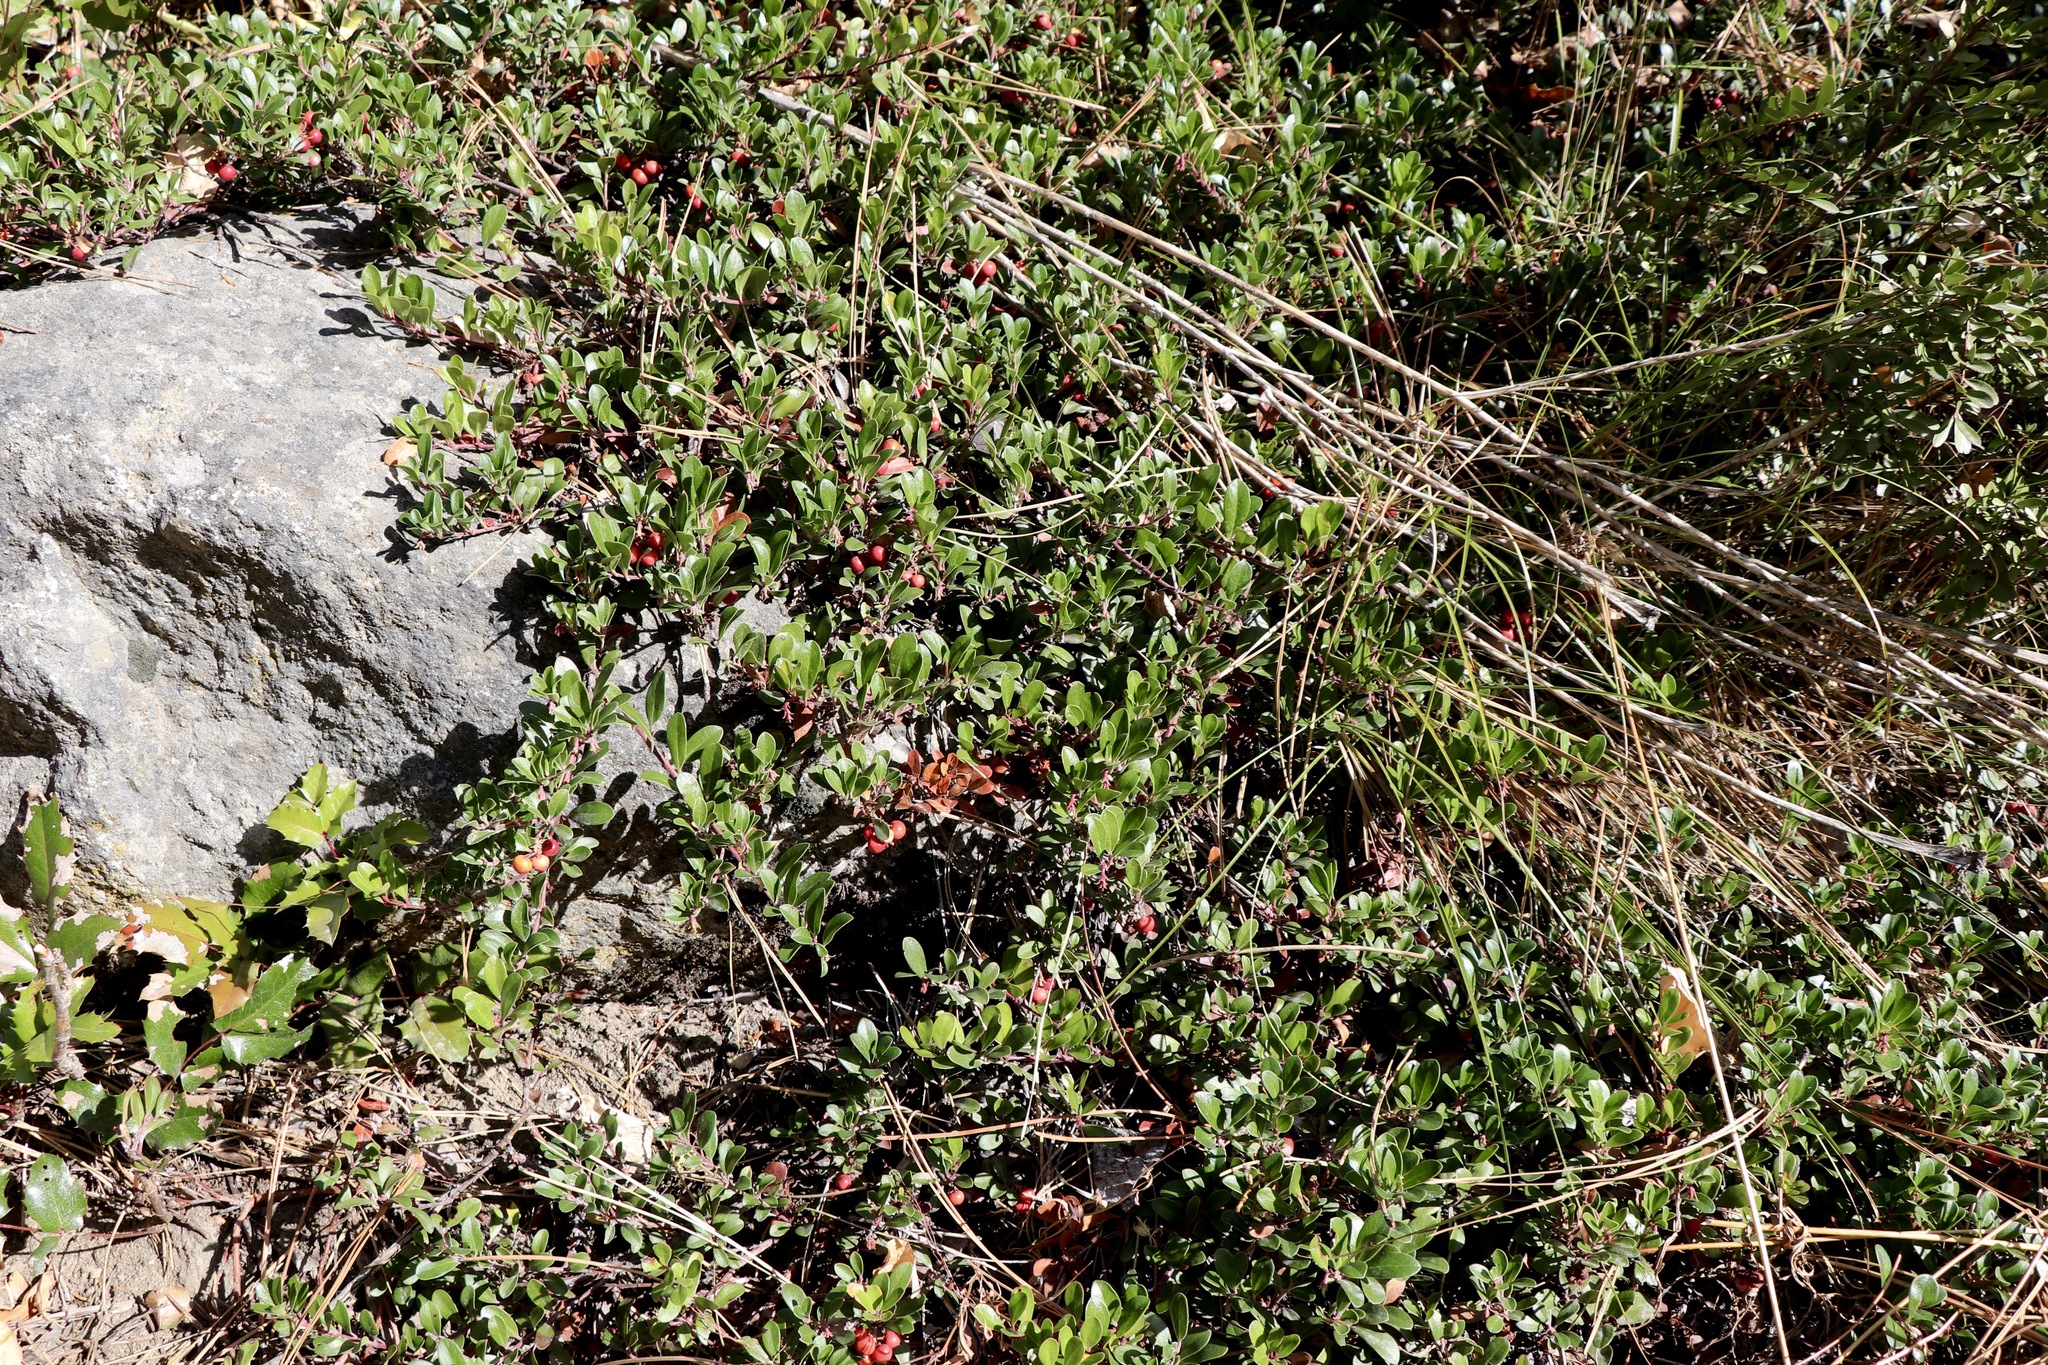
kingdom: Plantae
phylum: Tracheophyta
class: Magnoliopsida
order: Ericales
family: Ericaceae
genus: Arctostaphylos
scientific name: Arctostaphylos uva-ursi
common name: Bearberry
